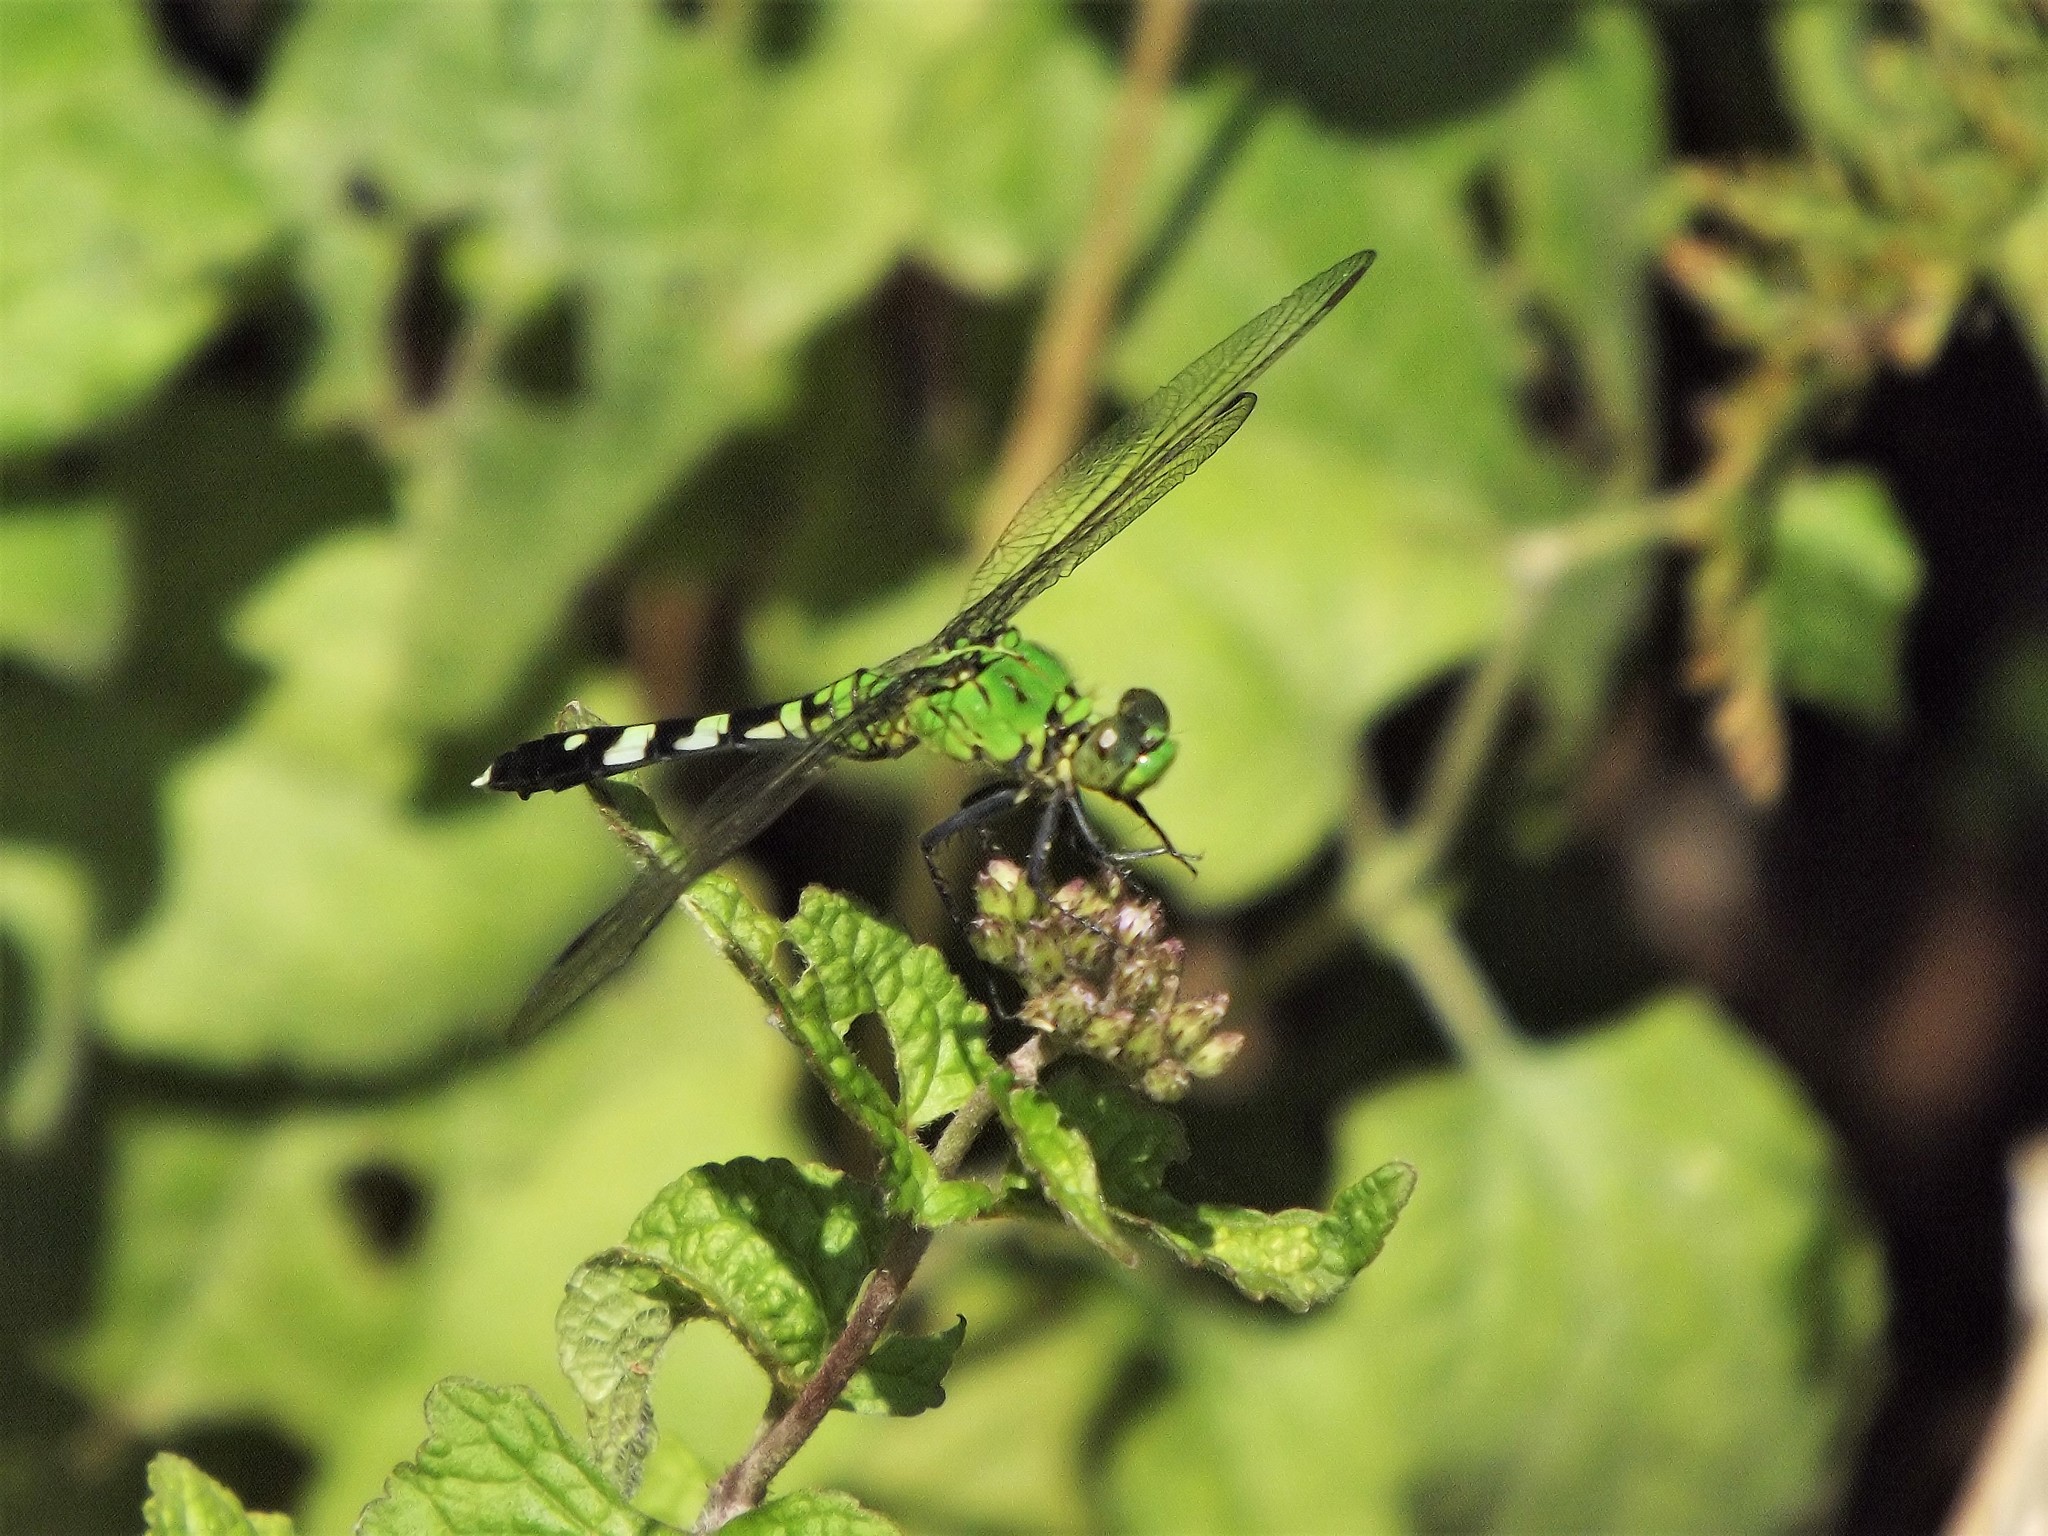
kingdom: Animalia
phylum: Arthropoda
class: Insecta
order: Odonata
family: Libellulidae
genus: Erythemis
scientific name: Erythemis simplicicollis
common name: Eastern pondhawk
